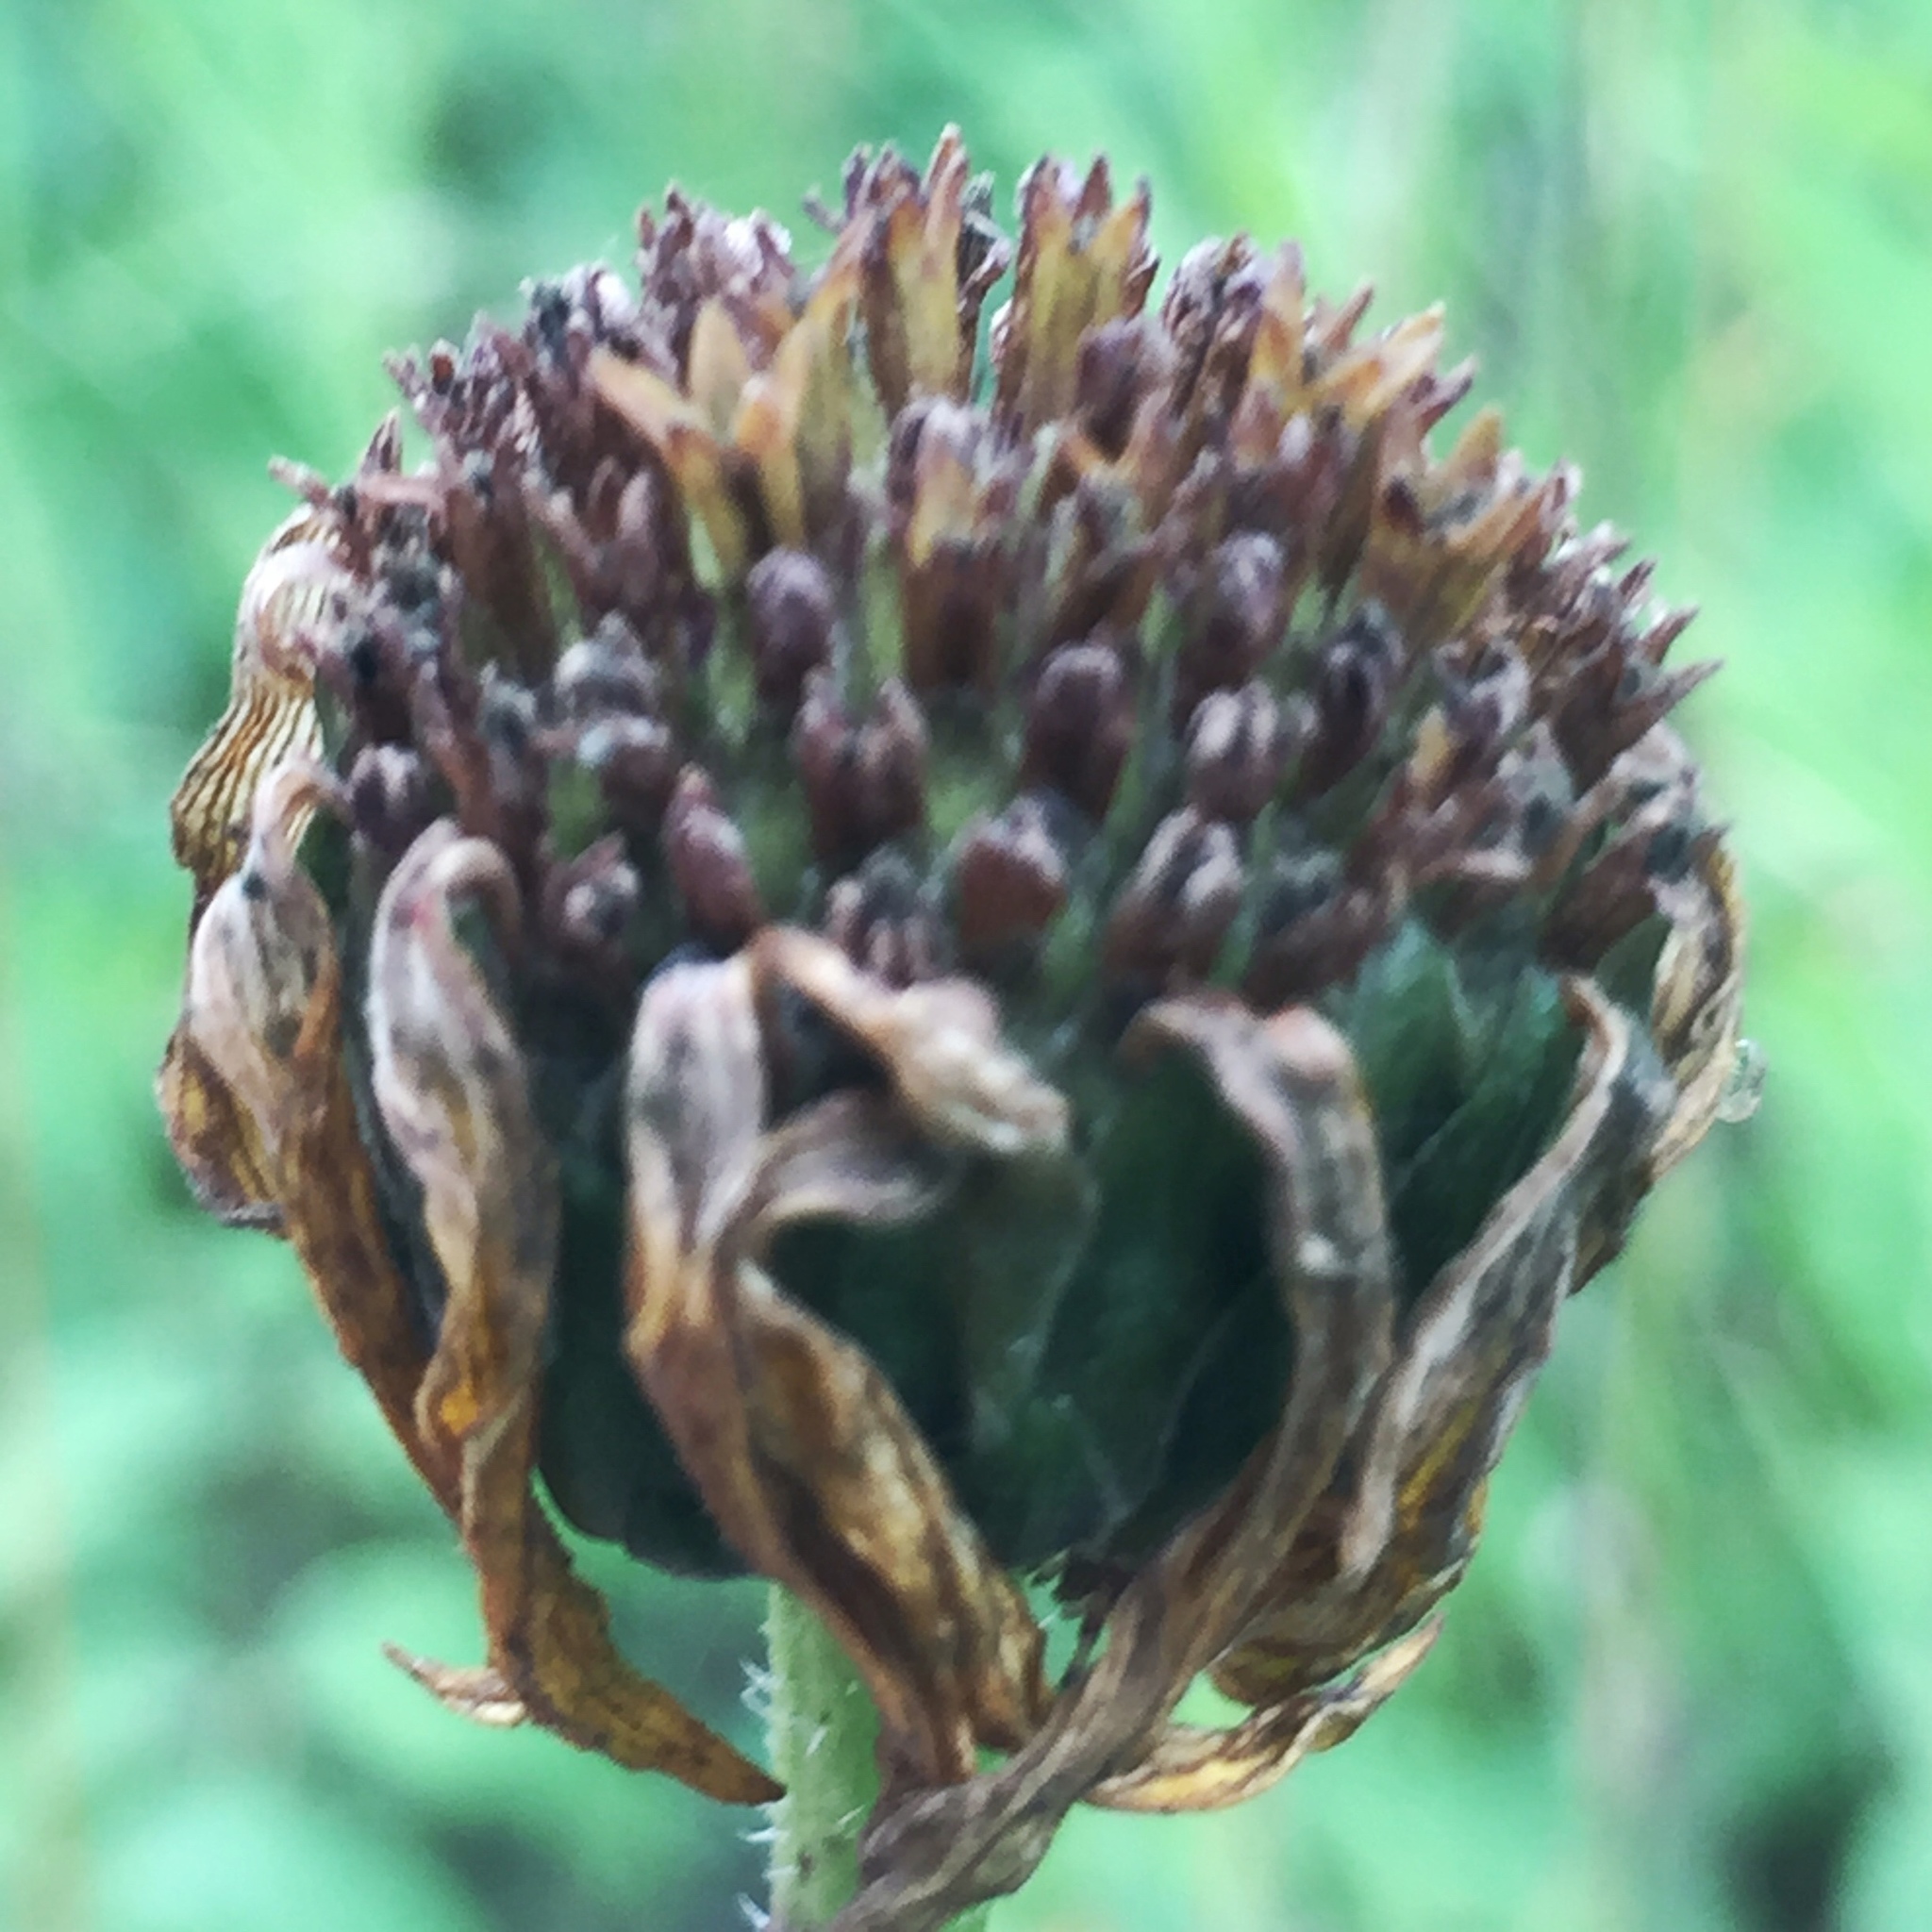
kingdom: Plantae
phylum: Tracheophyta
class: Magnoliopsida
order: Asterales
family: Asteraceae
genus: Helianthus
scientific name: Helianthus pauciflorus
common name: Stiff sunflower
